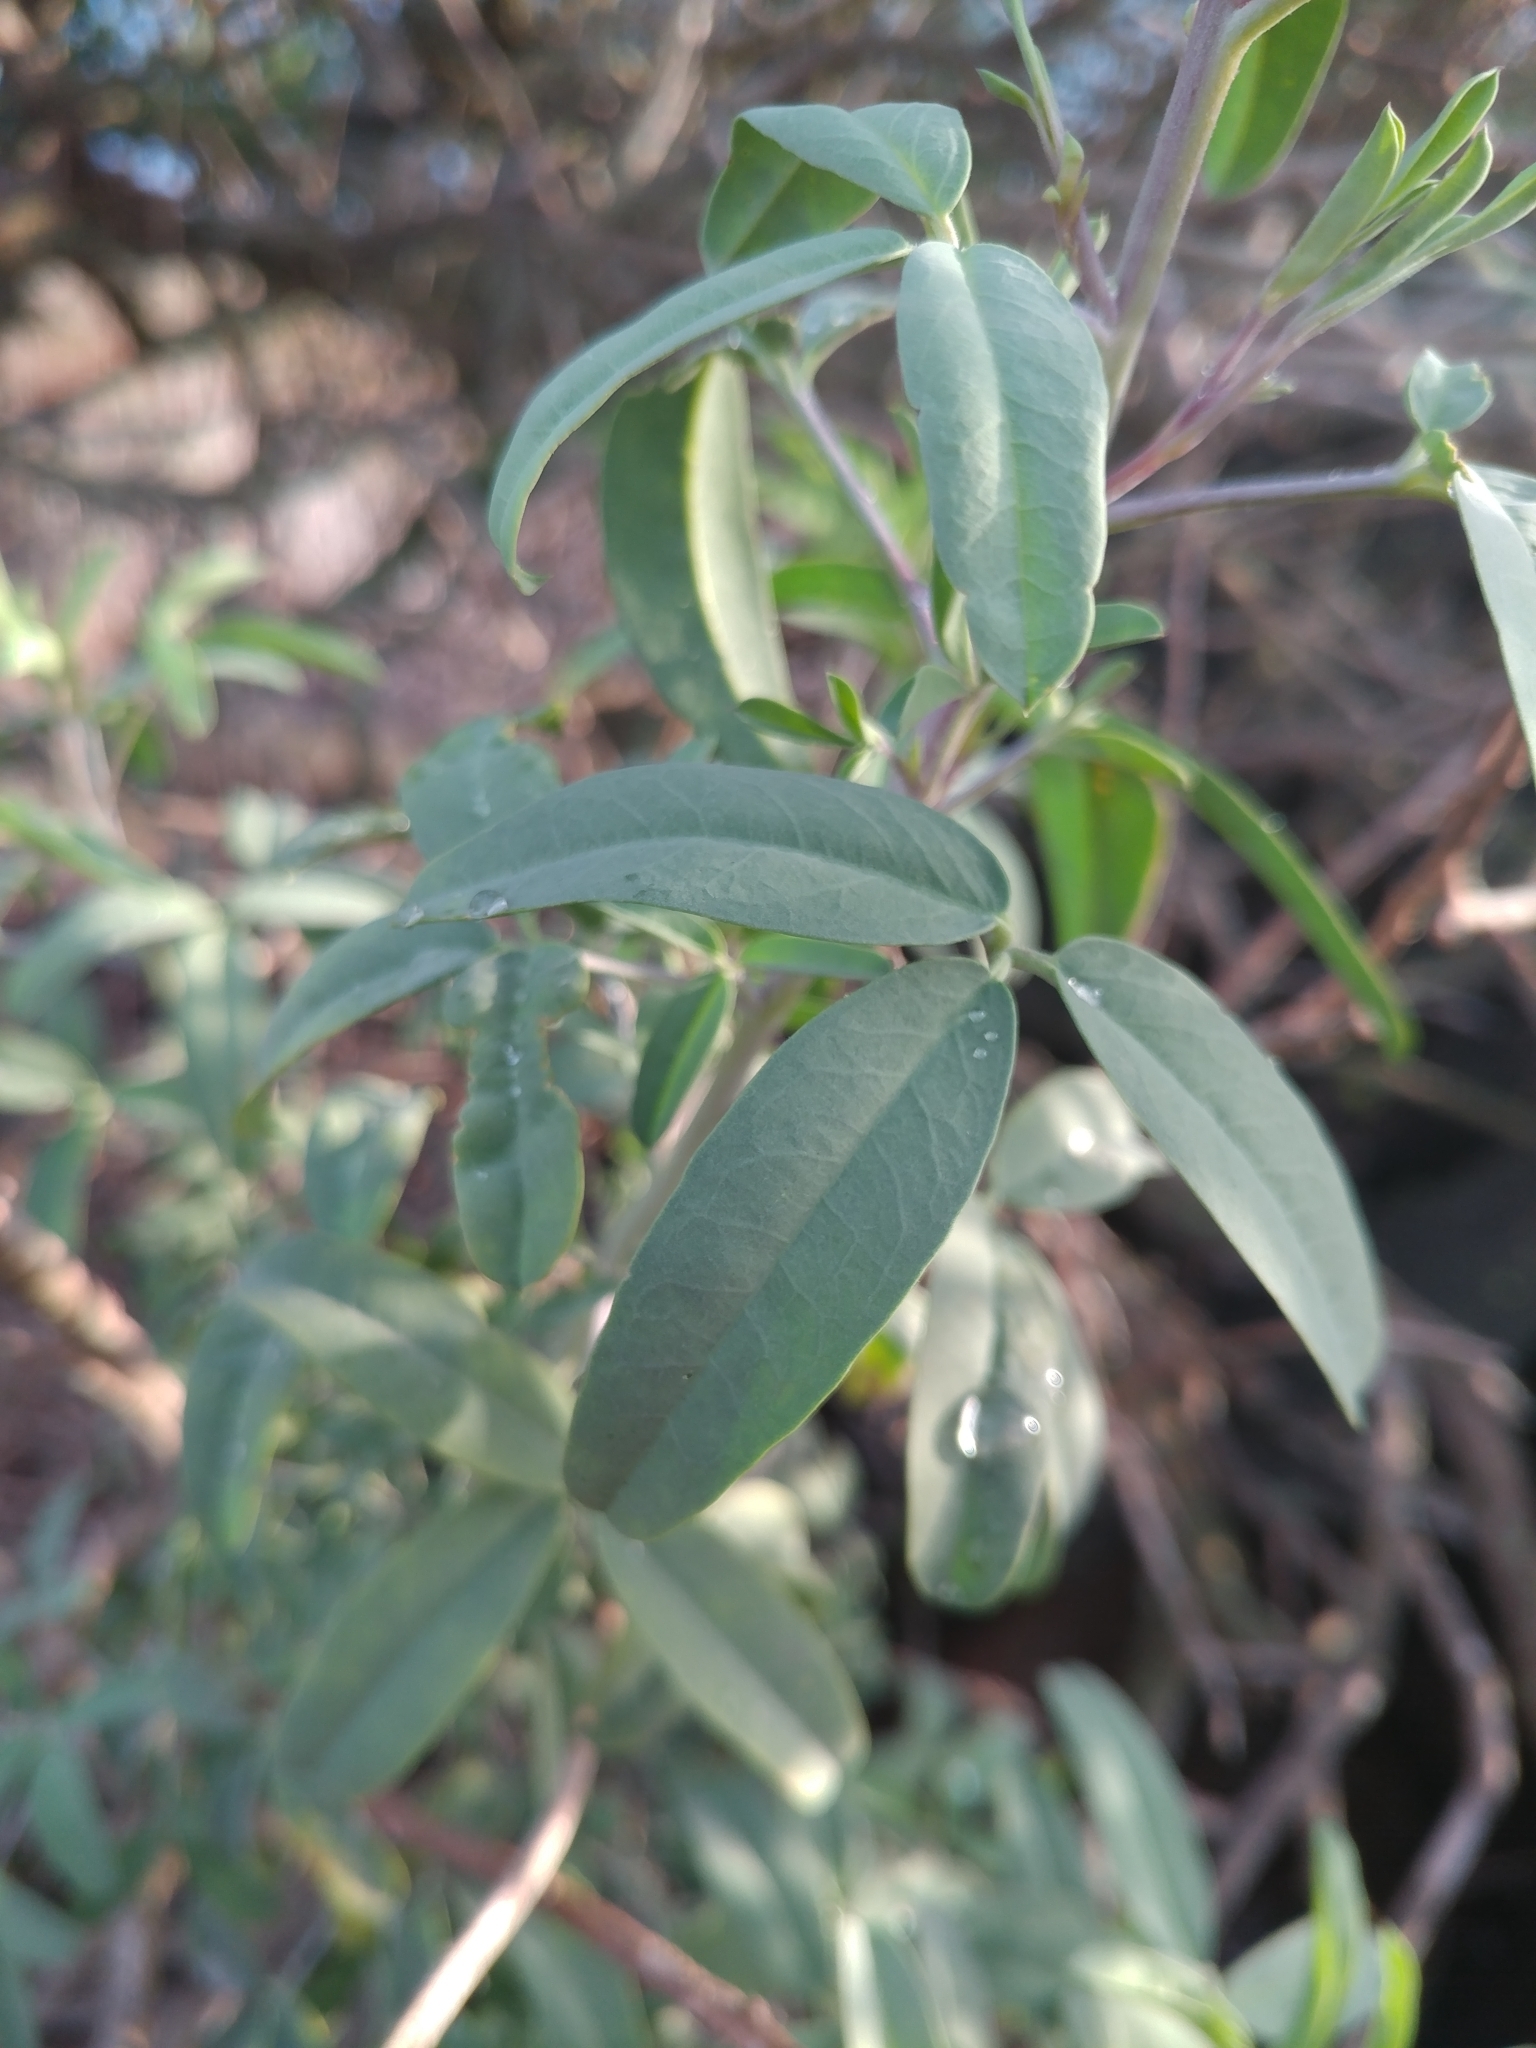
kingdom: Plantae
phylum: Tracheophyta
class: Magnoliopsida
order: Brassicales
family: Cleomaceae
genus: Cleomella
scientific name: Cleomella arborea
